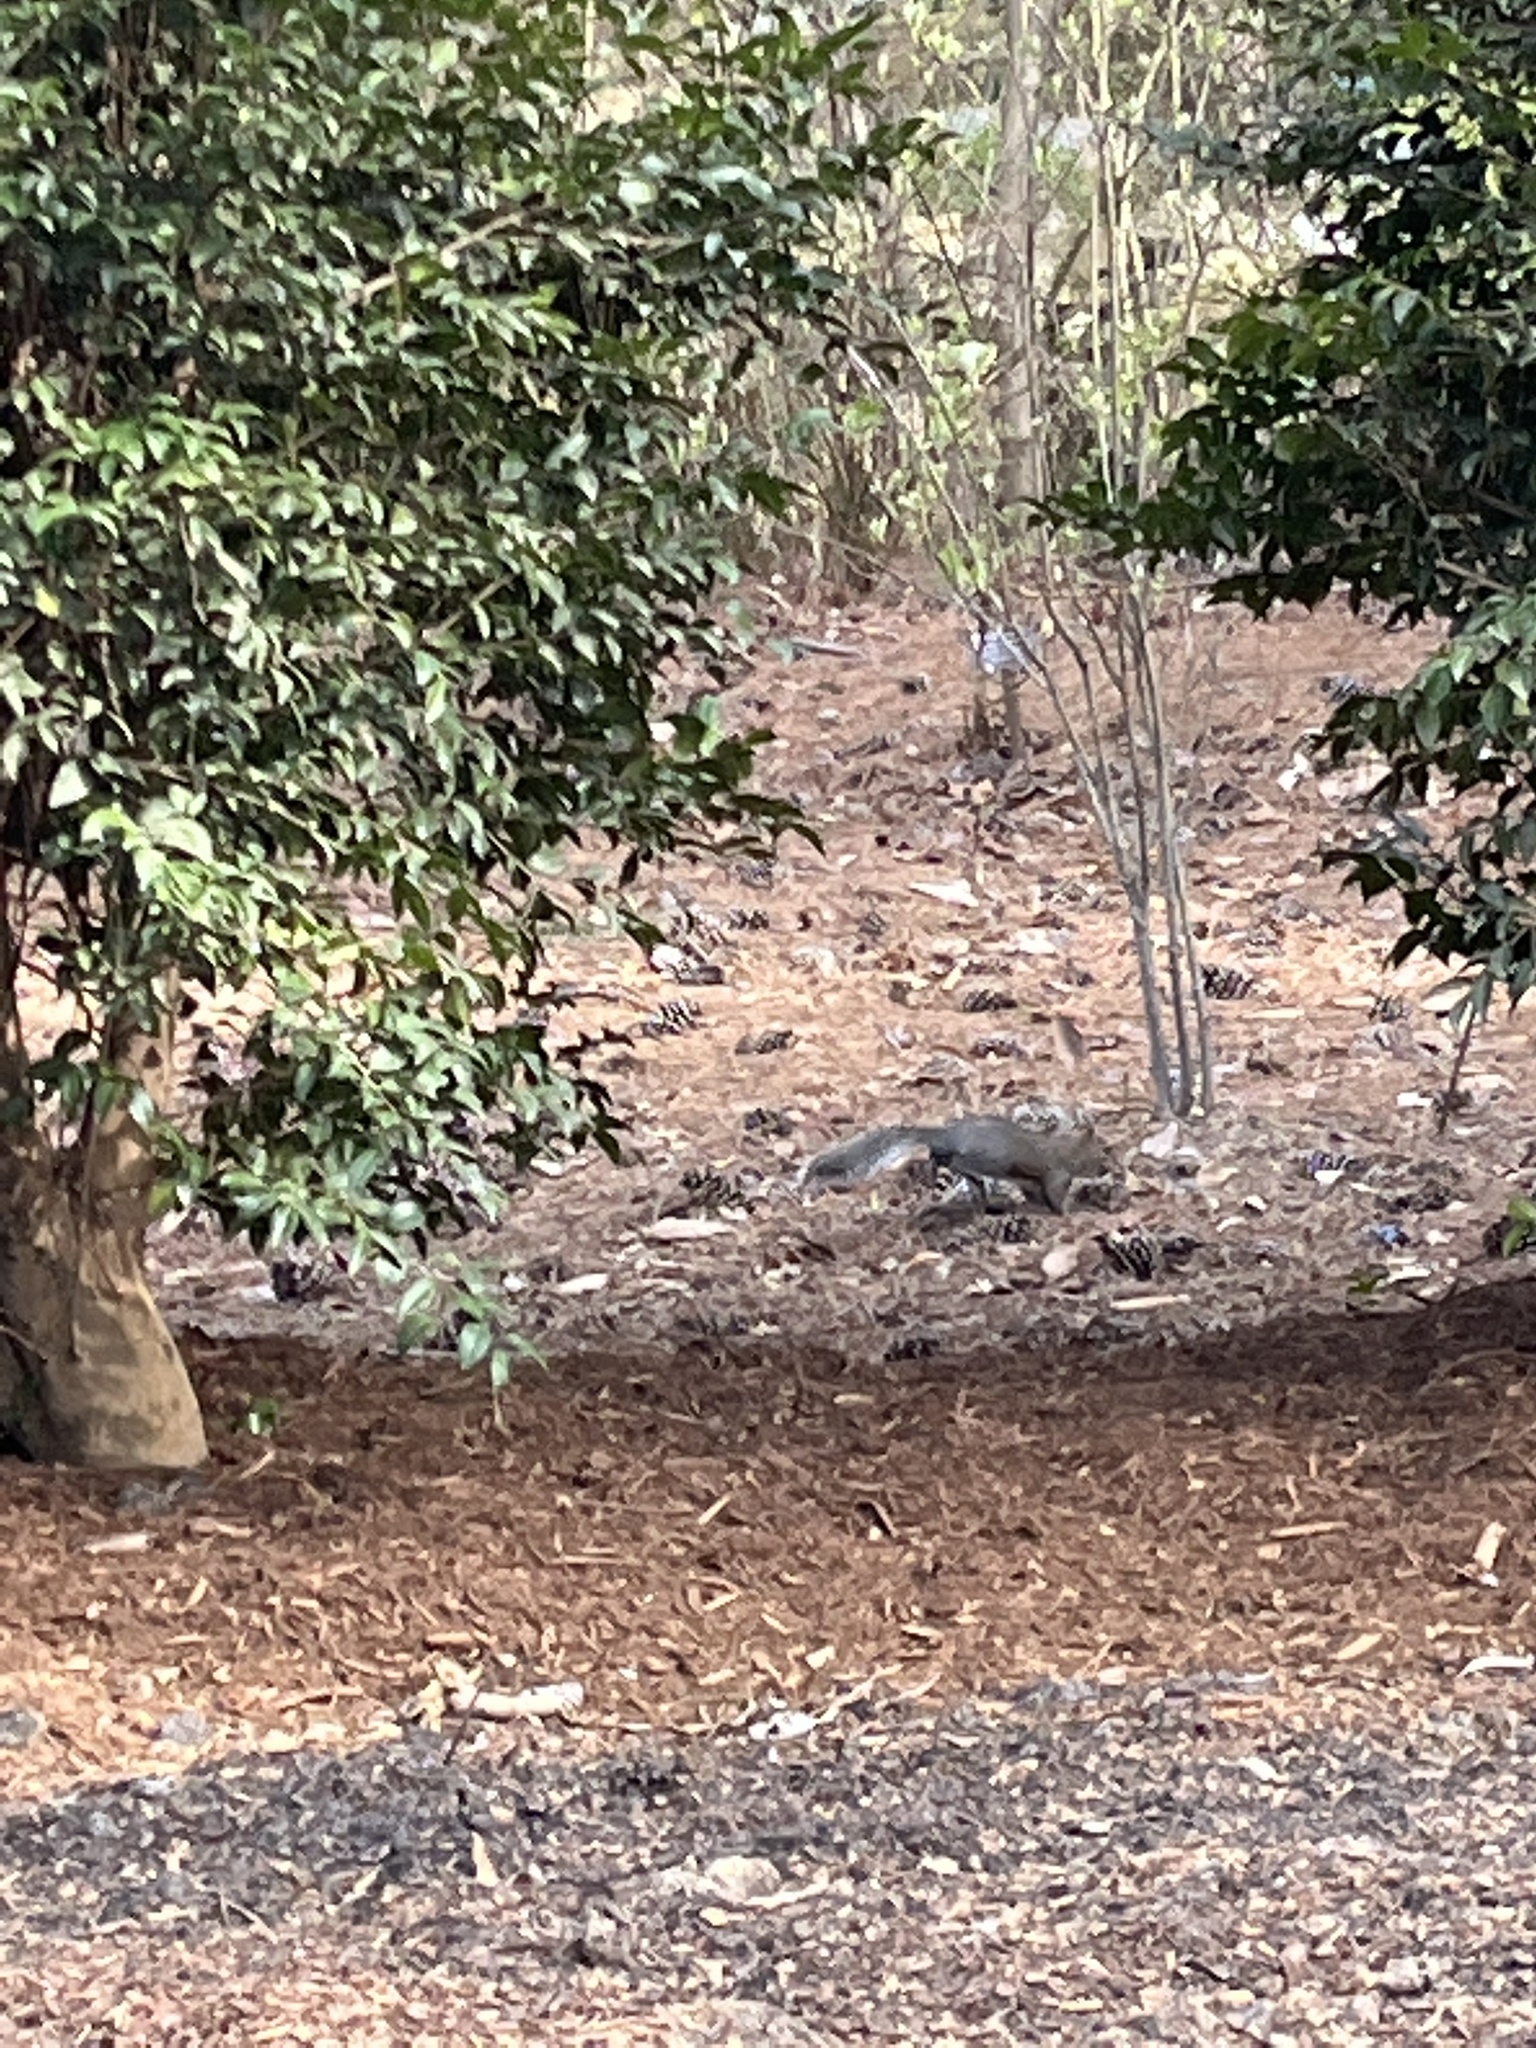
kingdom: Animalia
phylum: Chordata
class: Mammalia
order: Rodentia
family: Sciuridae
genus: Sciurus
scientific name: Sciurus carolinensis
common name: Eastern gray squirrel
